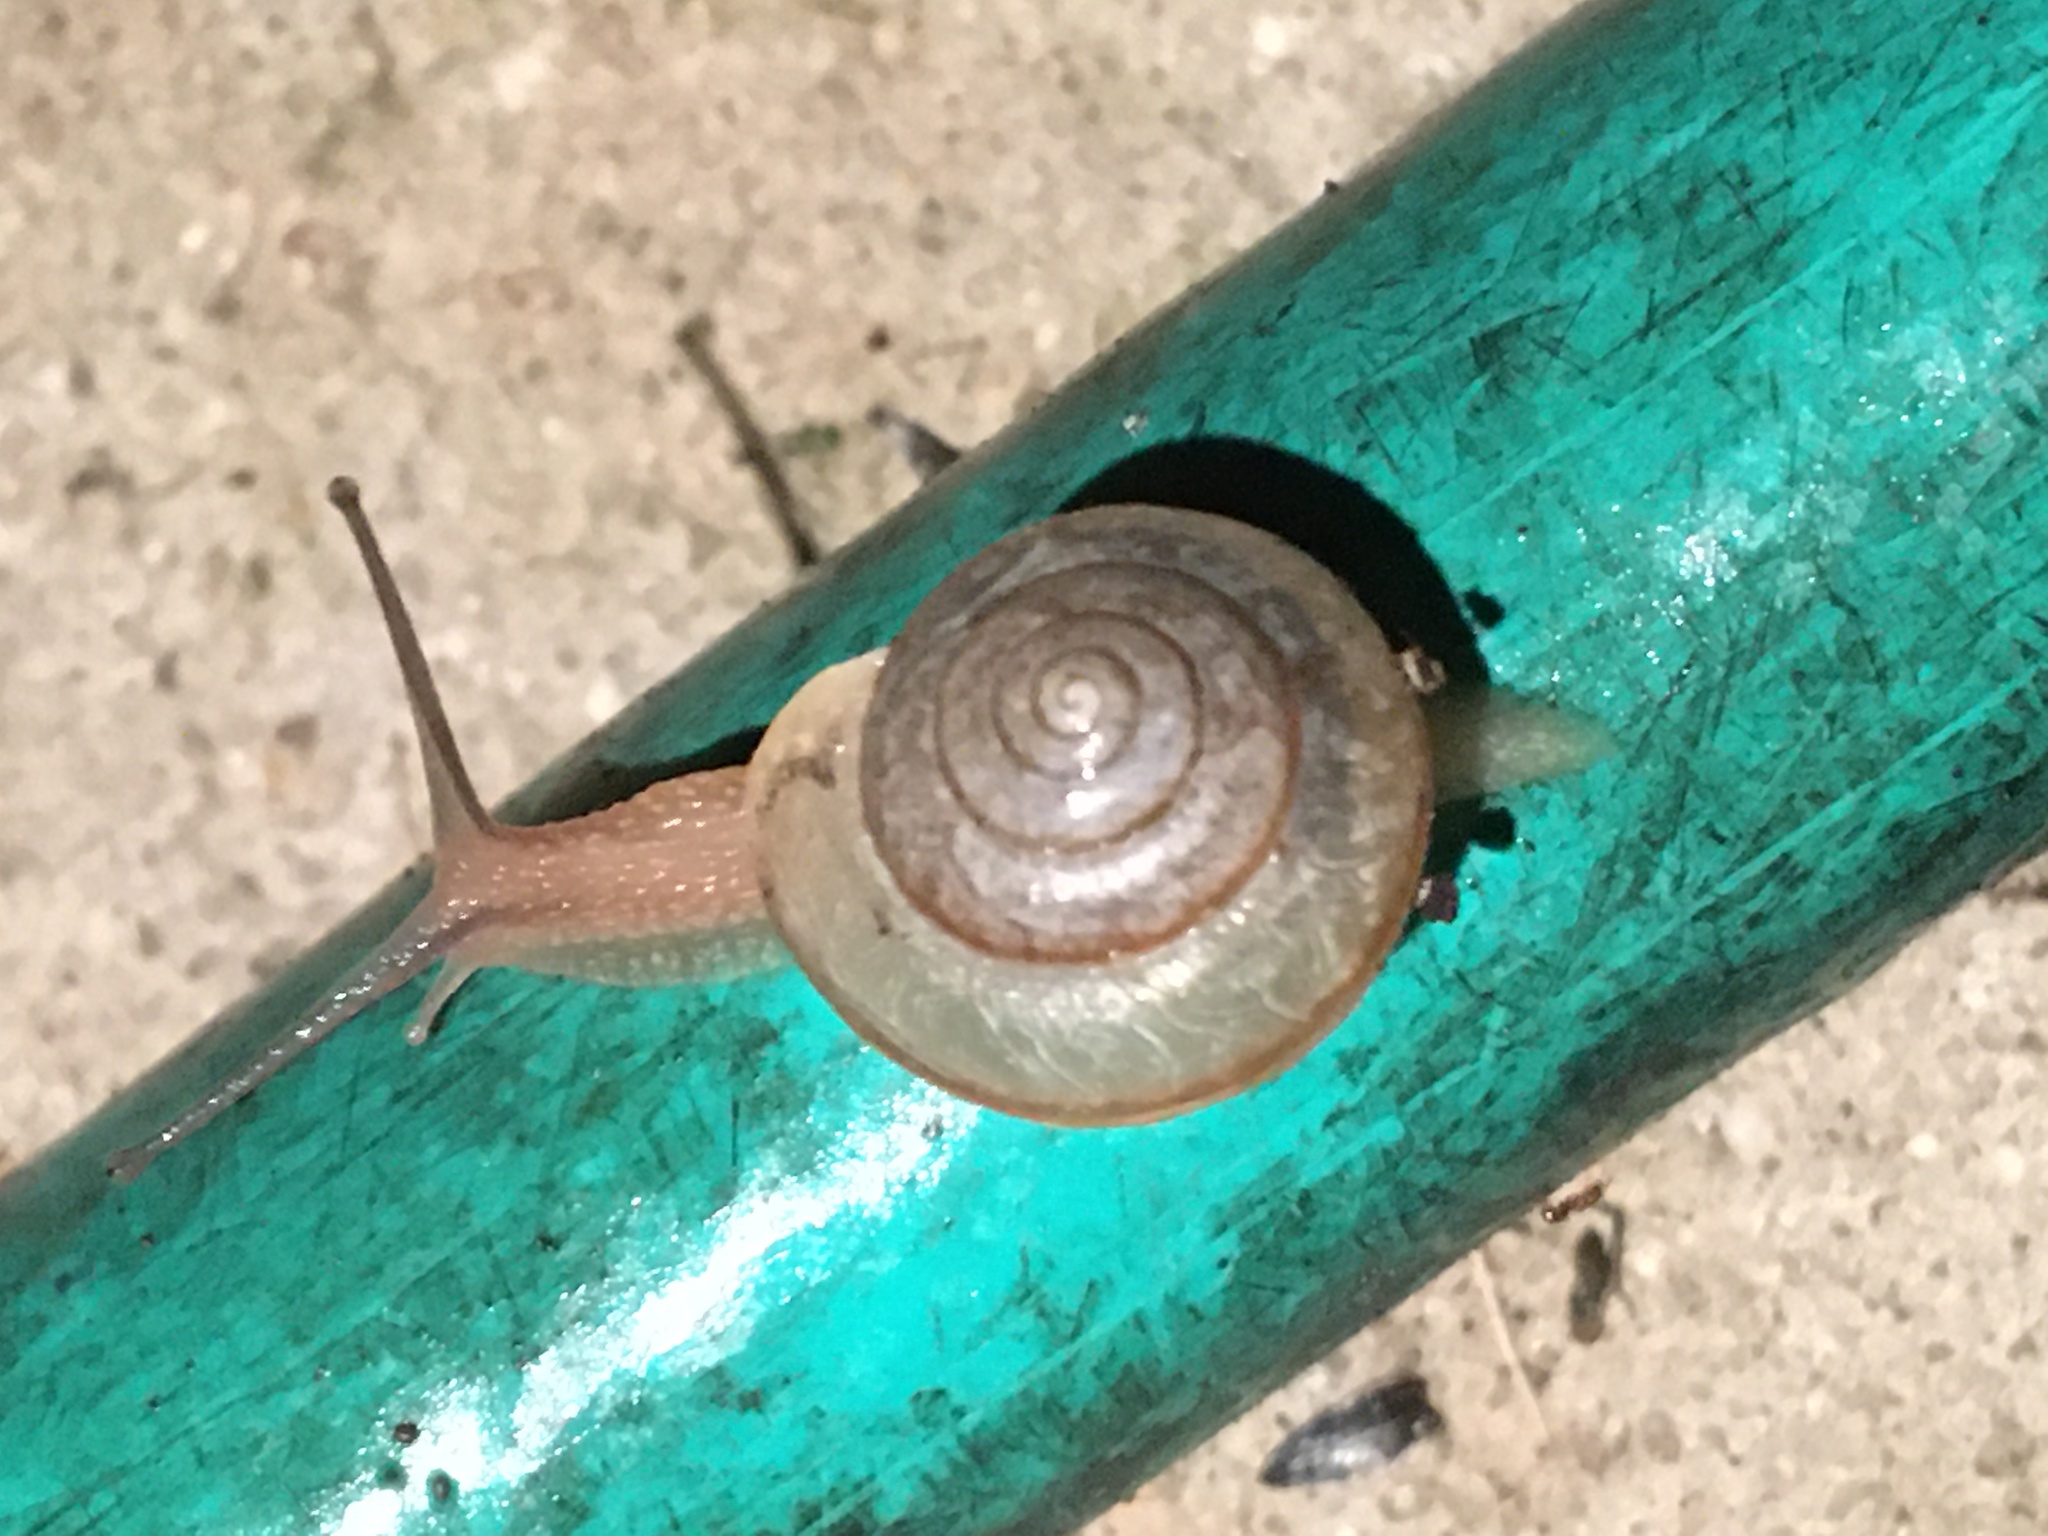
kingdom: Animalia
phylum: Mollusca
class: Gastropoda
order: Stylommatophora
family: Camaenidae
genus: Bradybaena
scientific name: Bradybaena similaris
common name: Asian trampsnail
